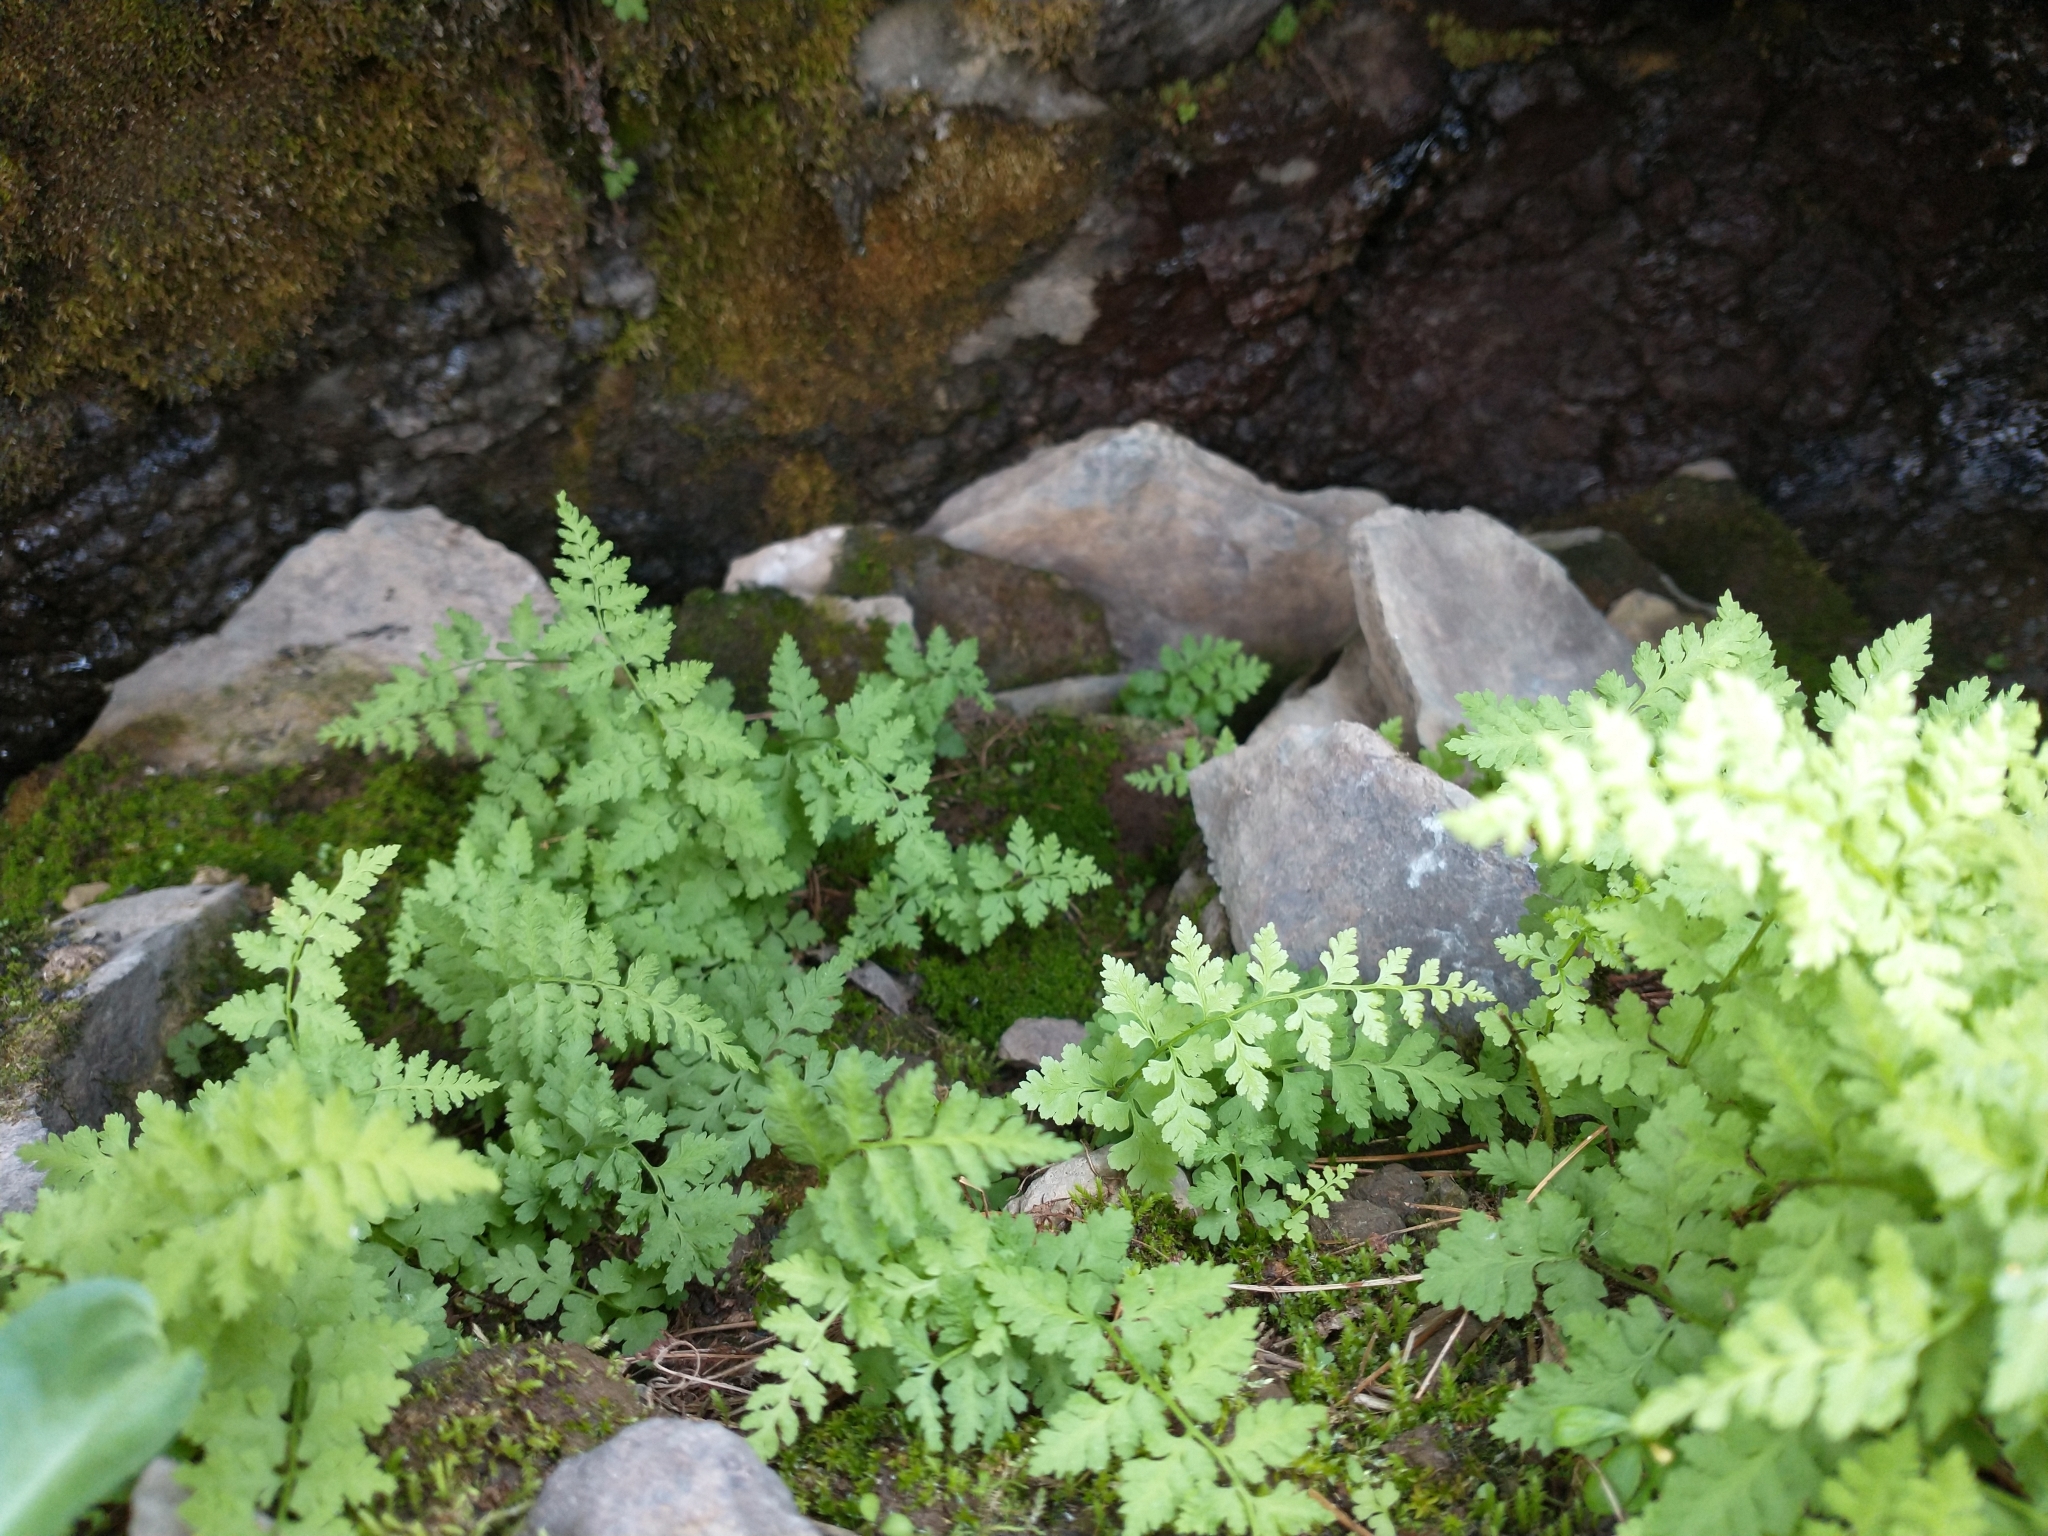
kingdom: Plantae
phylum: Tracheophyta
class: Polypodiopsida
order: Polypodiales
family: Cystopteridaceae
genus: Cystopteris
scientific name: Cystopteris fragilis
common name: Brittle bladder fern
